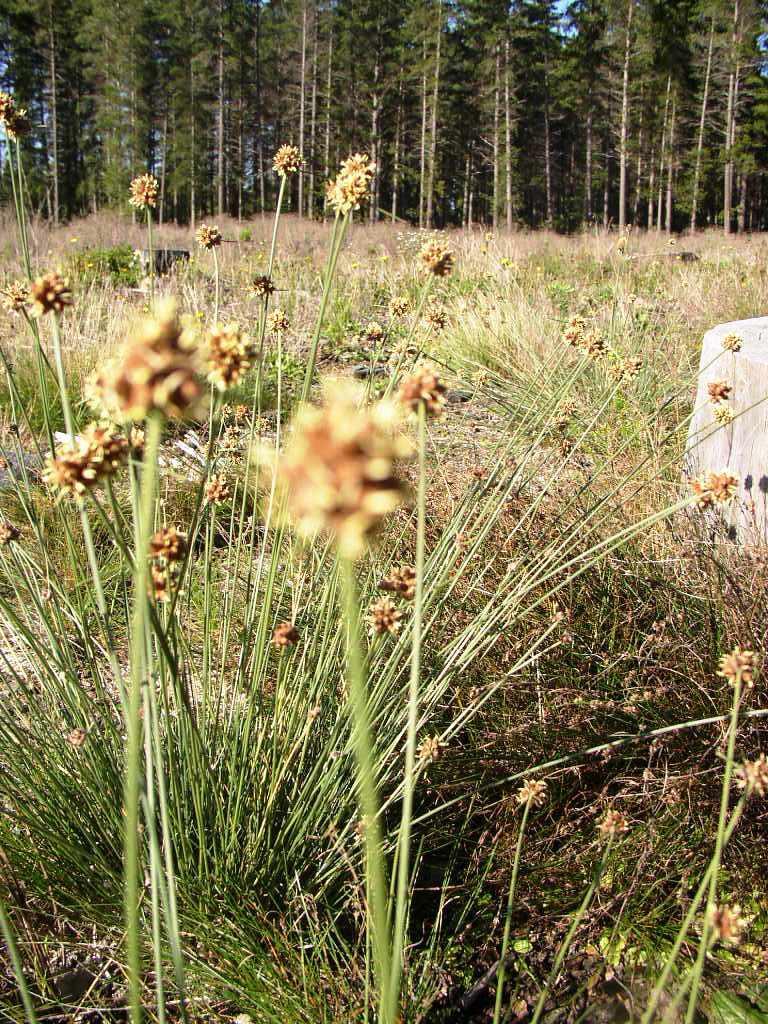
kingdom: Plantae
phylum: Tracheophyta
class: Liliopsida
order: Poales
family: Cyperaceae
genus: Ficinia
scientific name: Ficinia nodosa
